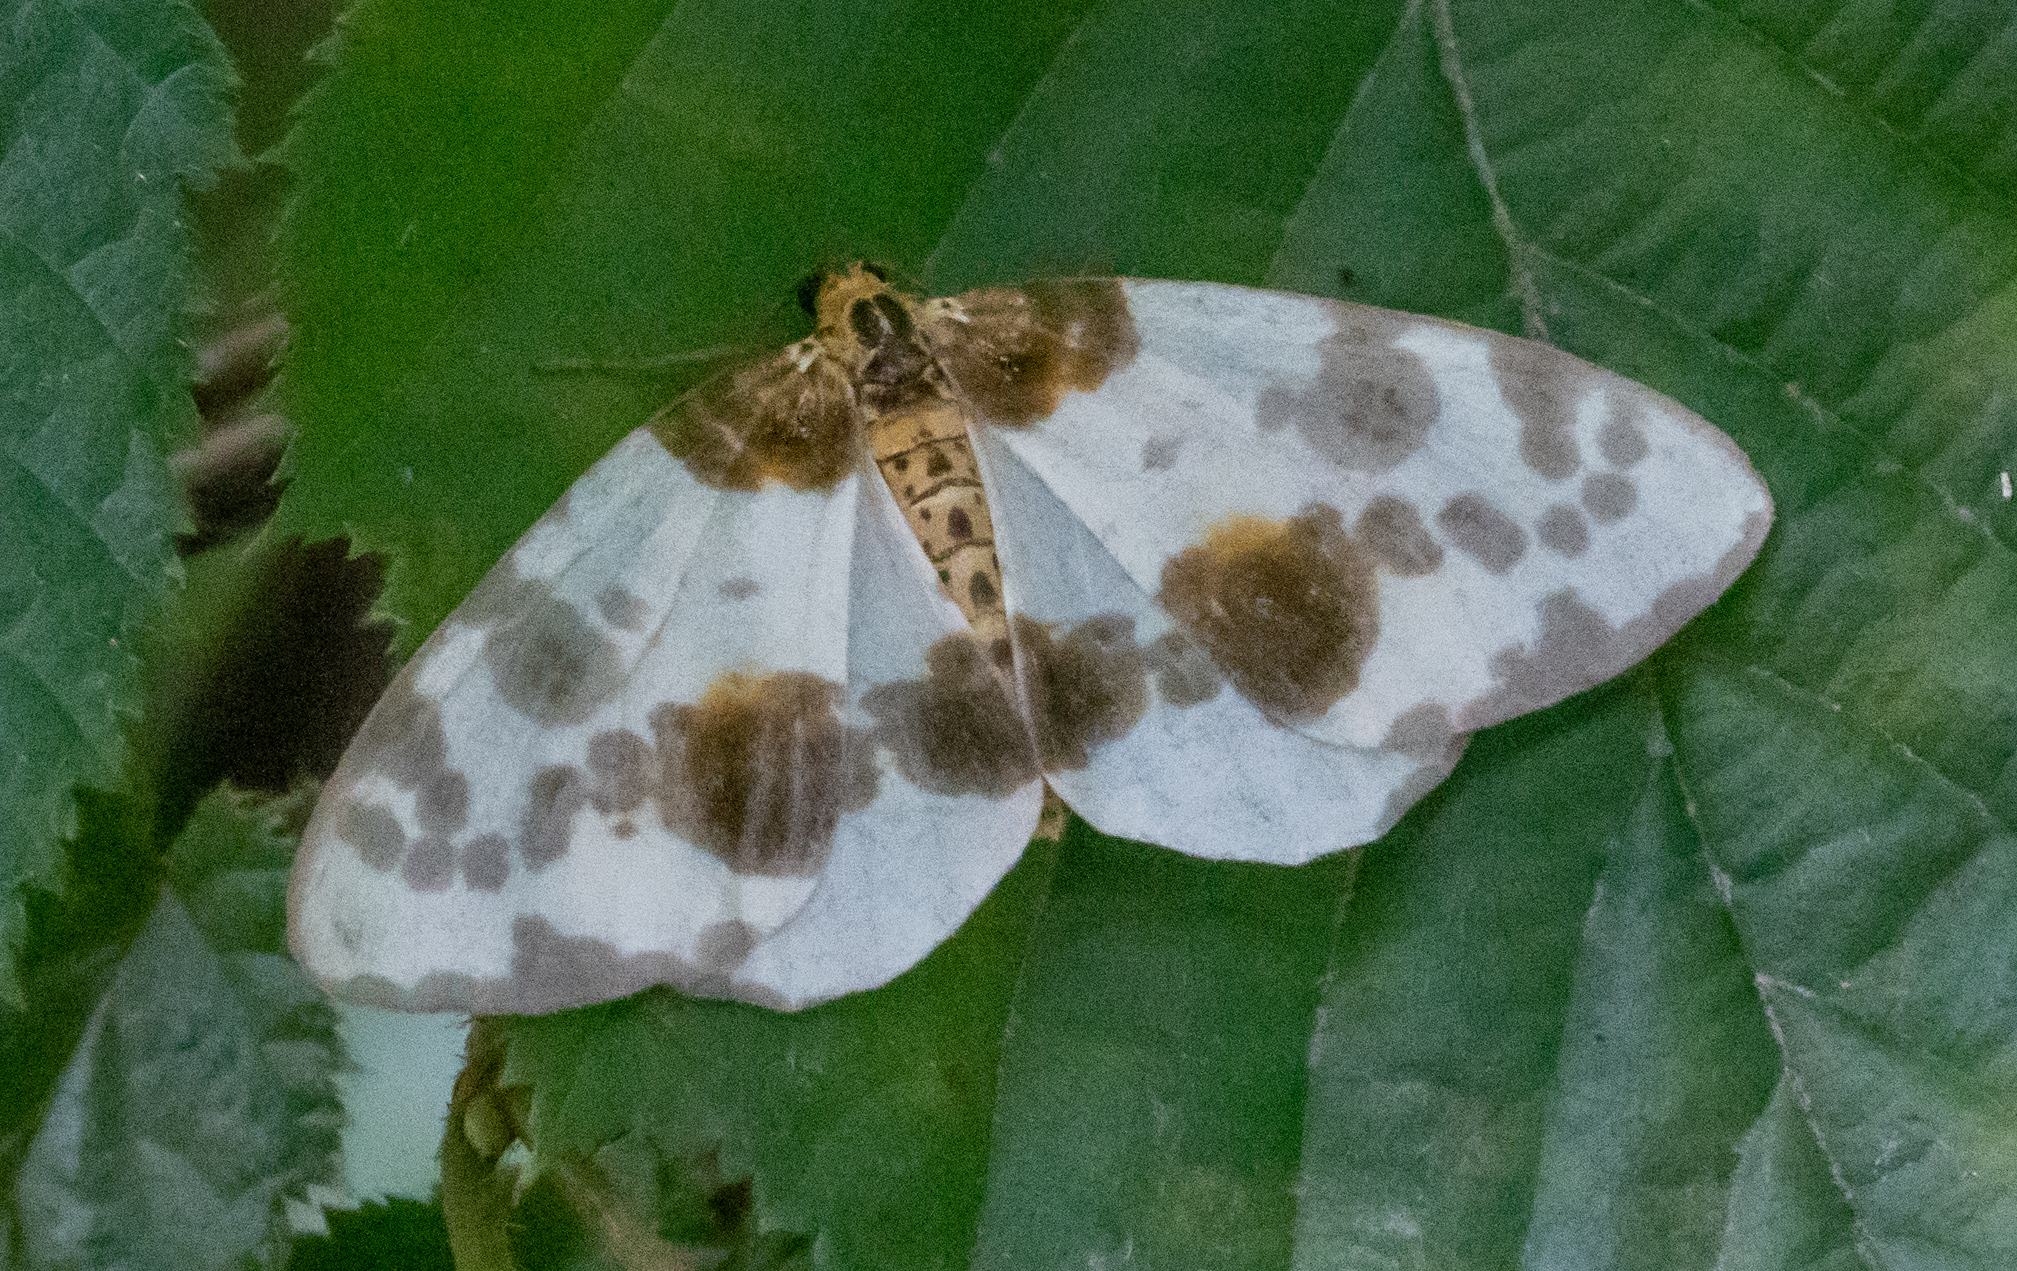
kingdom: Animalia
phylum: Arthropoda
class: Insecta
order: Lepidoptera
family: Geometridae
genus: Abraxas
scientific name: Abraxas sylvata
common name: Clouded magpie
